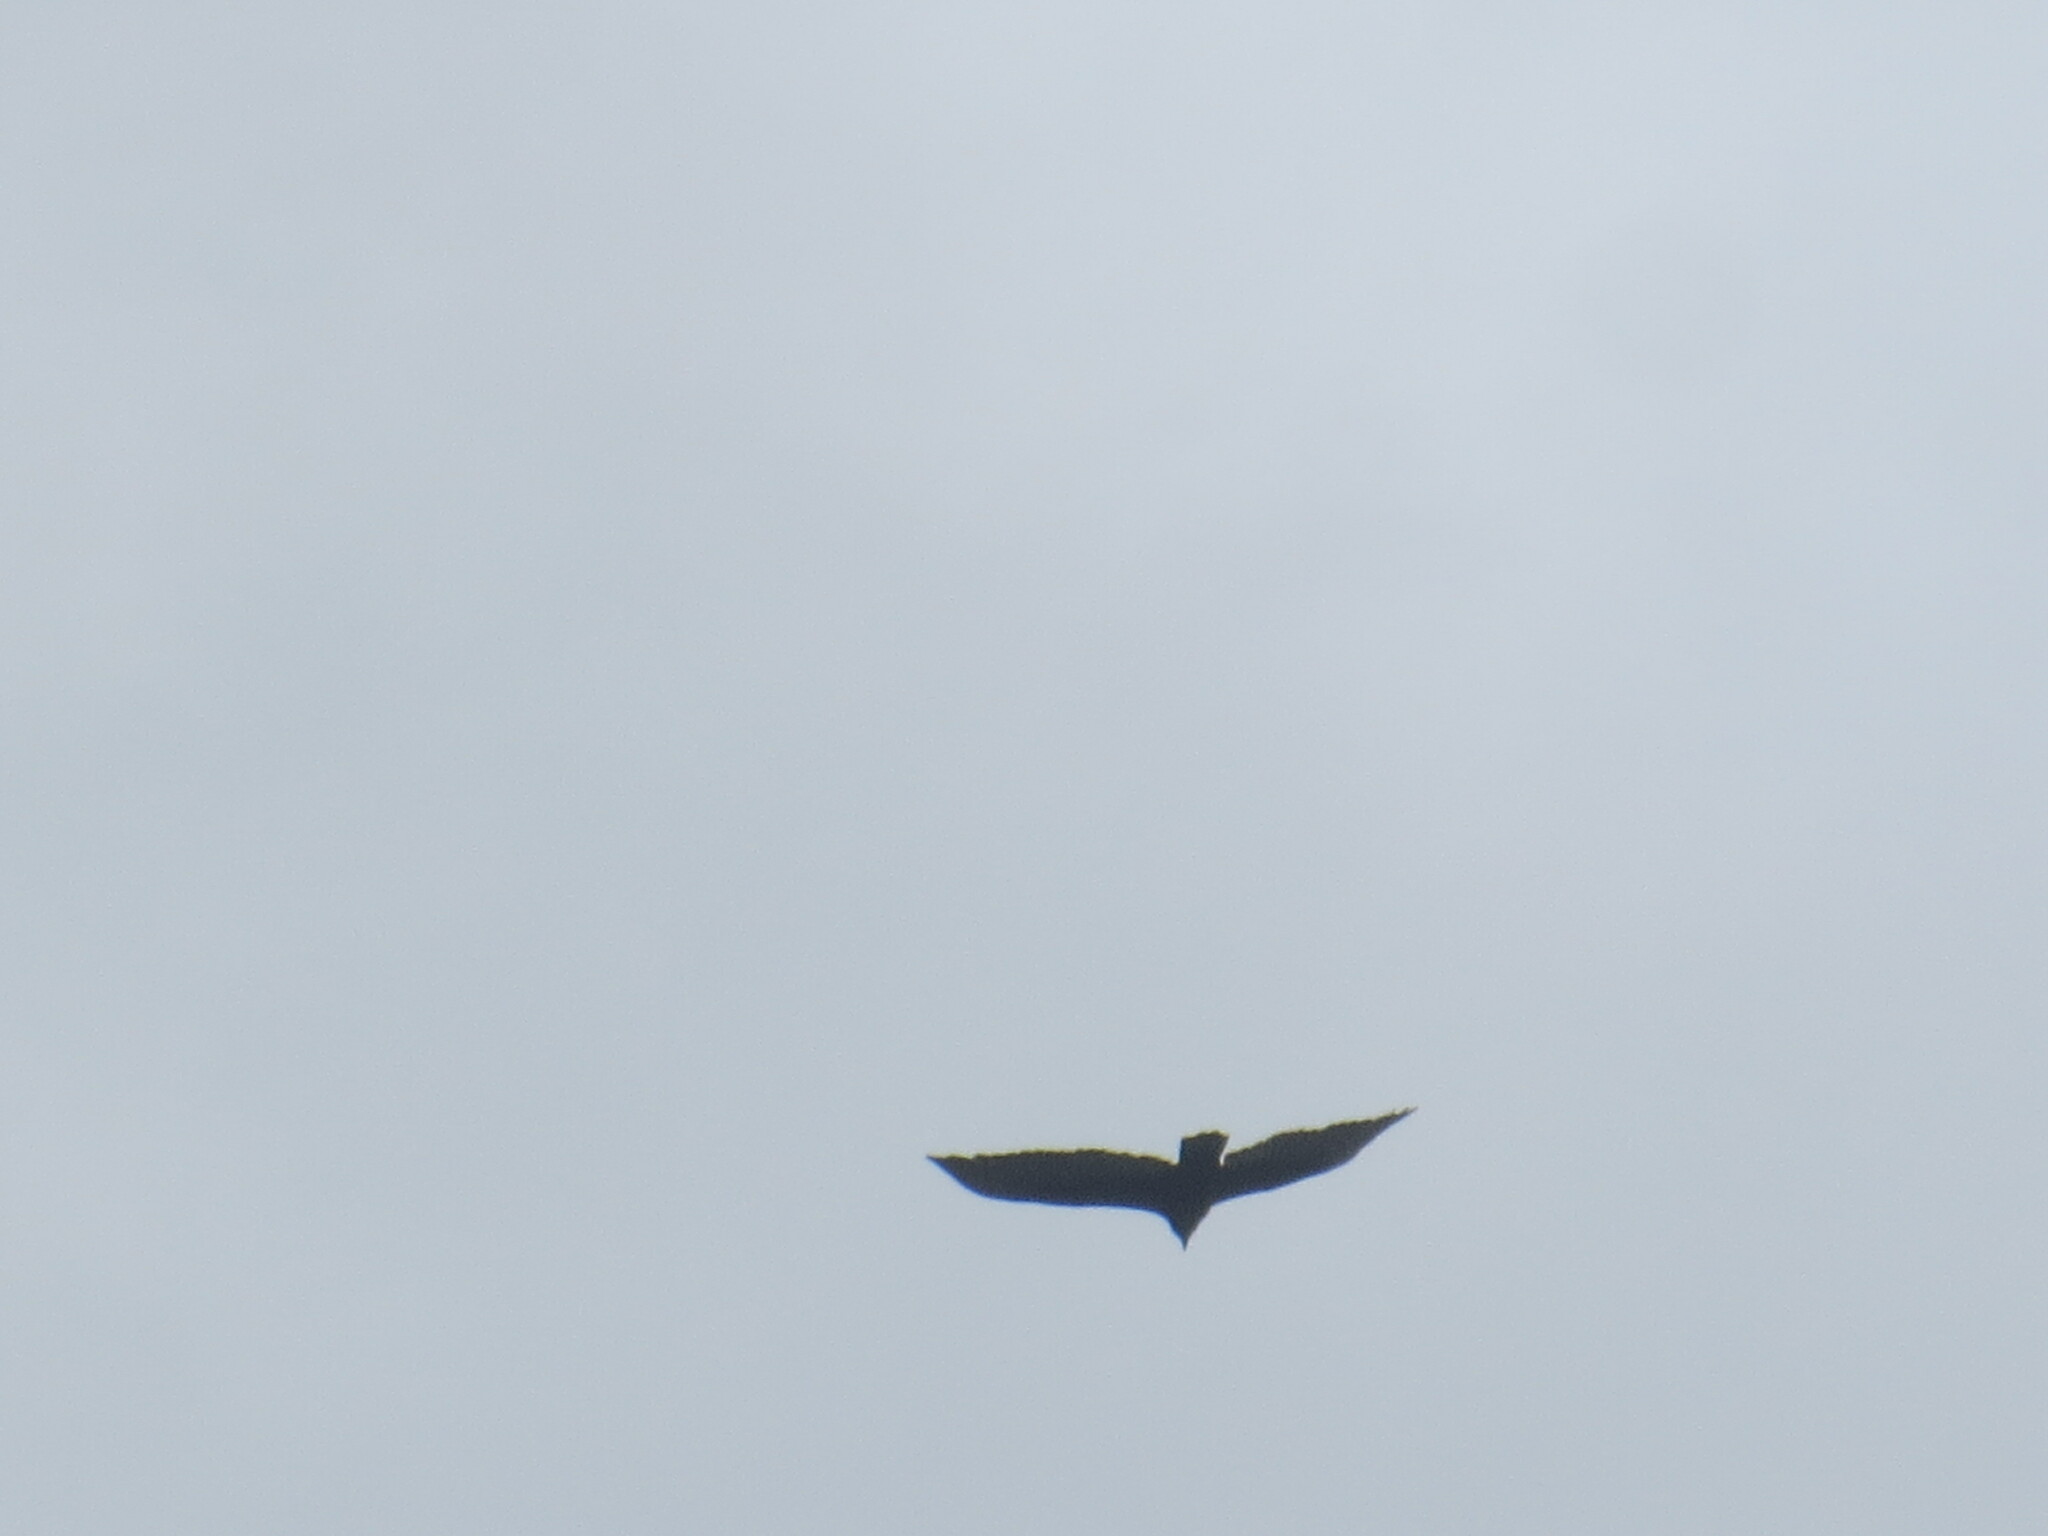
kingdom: Animalia
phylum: Chordata
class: Aves
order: Accipitriformes
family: Cathartidae
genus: Cathartes
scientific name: Cathartes aura
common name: Turkey vulture
